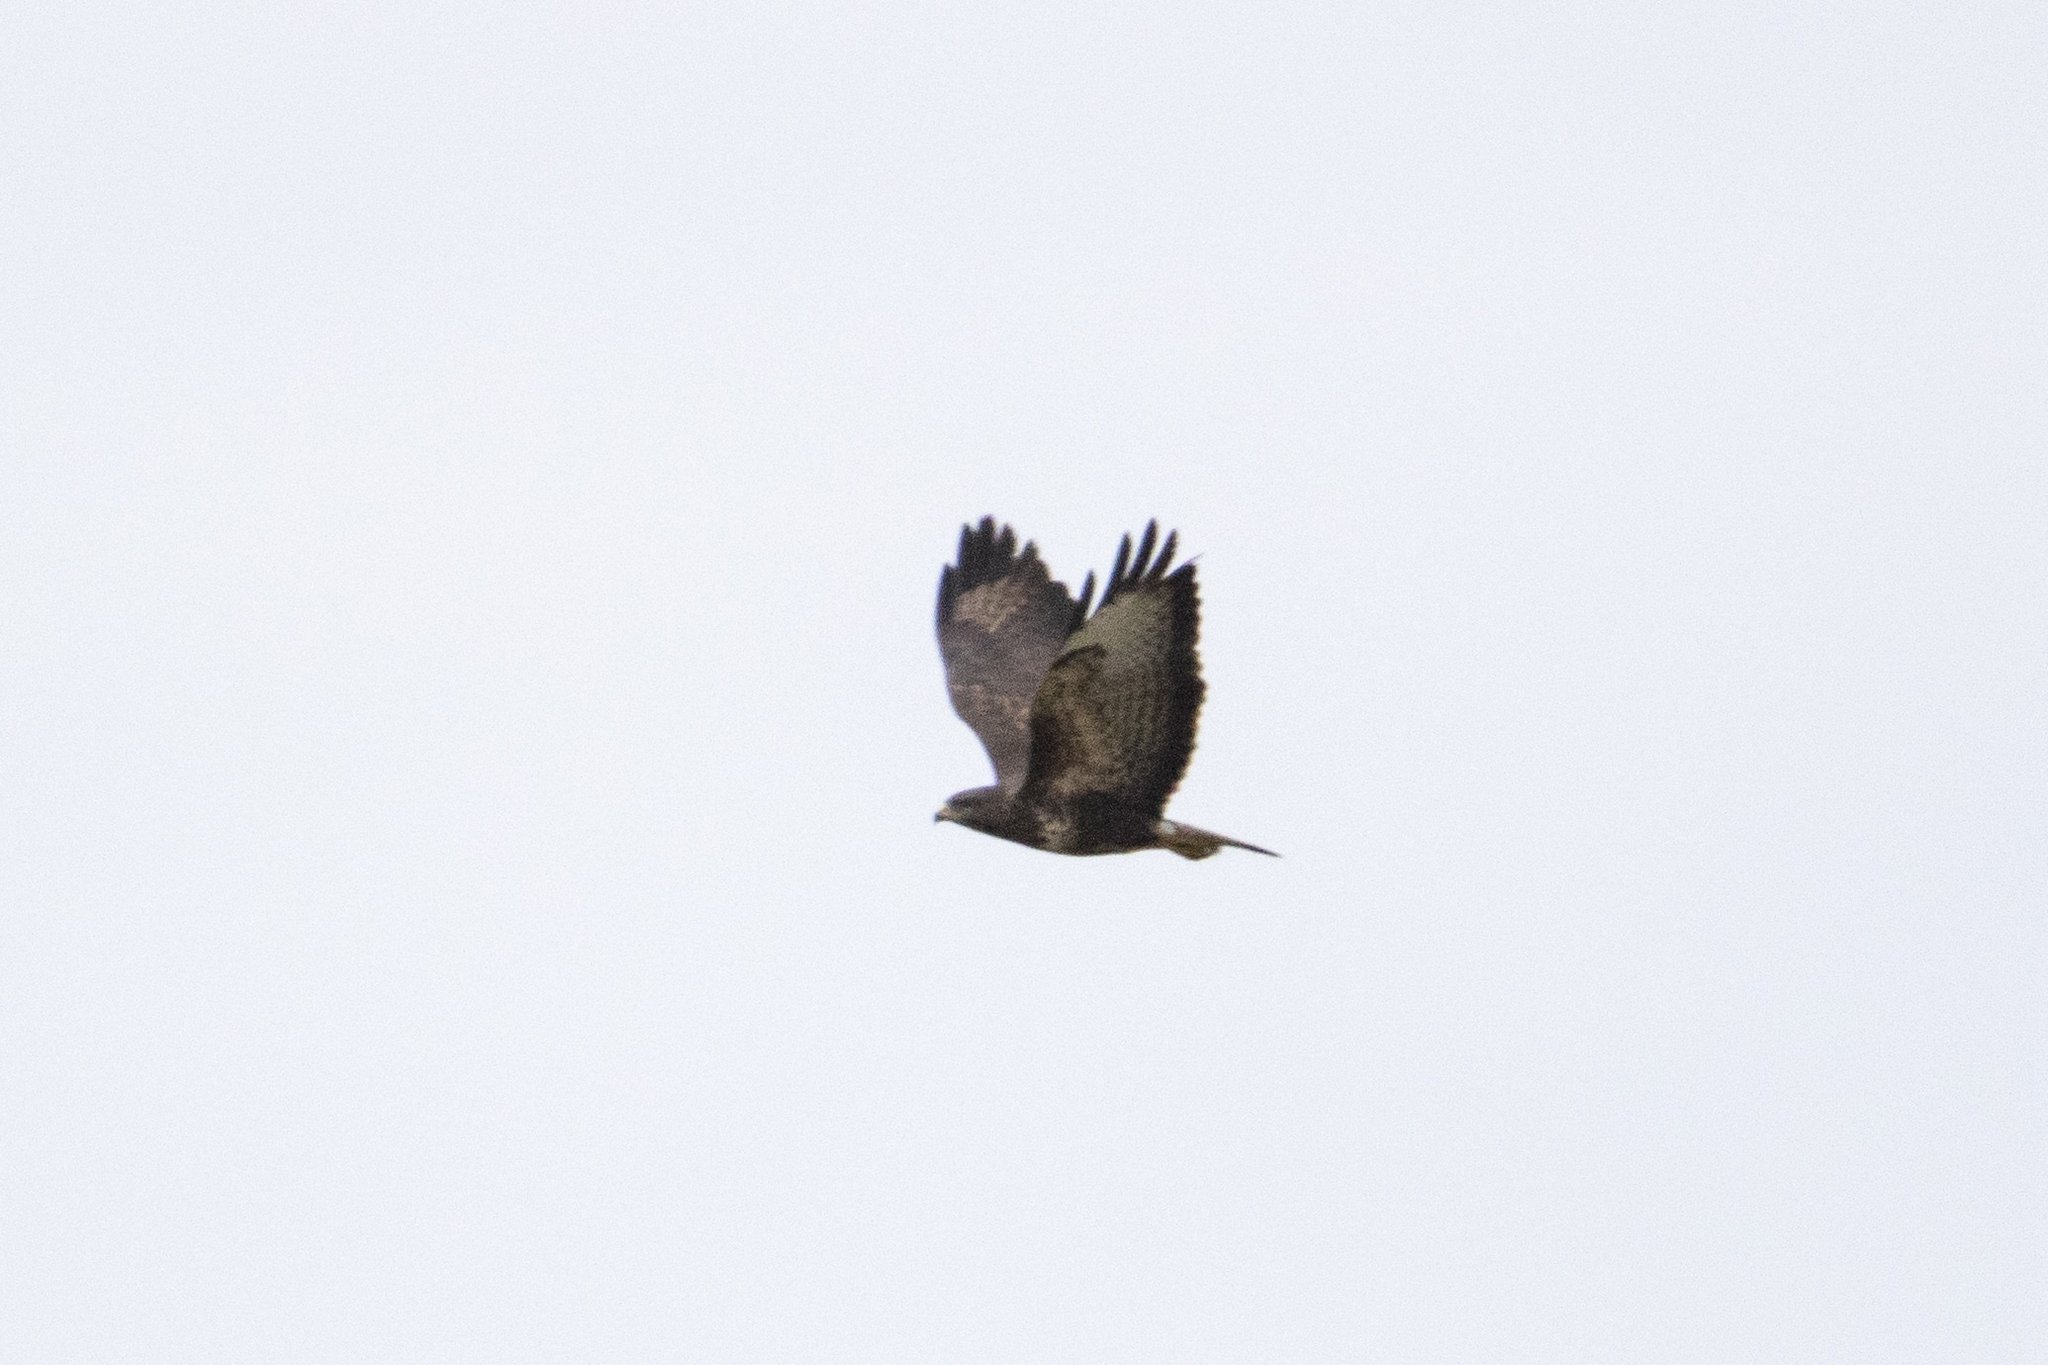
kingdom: Animalia
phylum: Chordata
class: Aves
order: Accipitriformes
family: Accipitridae
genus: Buteo
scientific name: Buteo buteo
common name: Common buzzard
